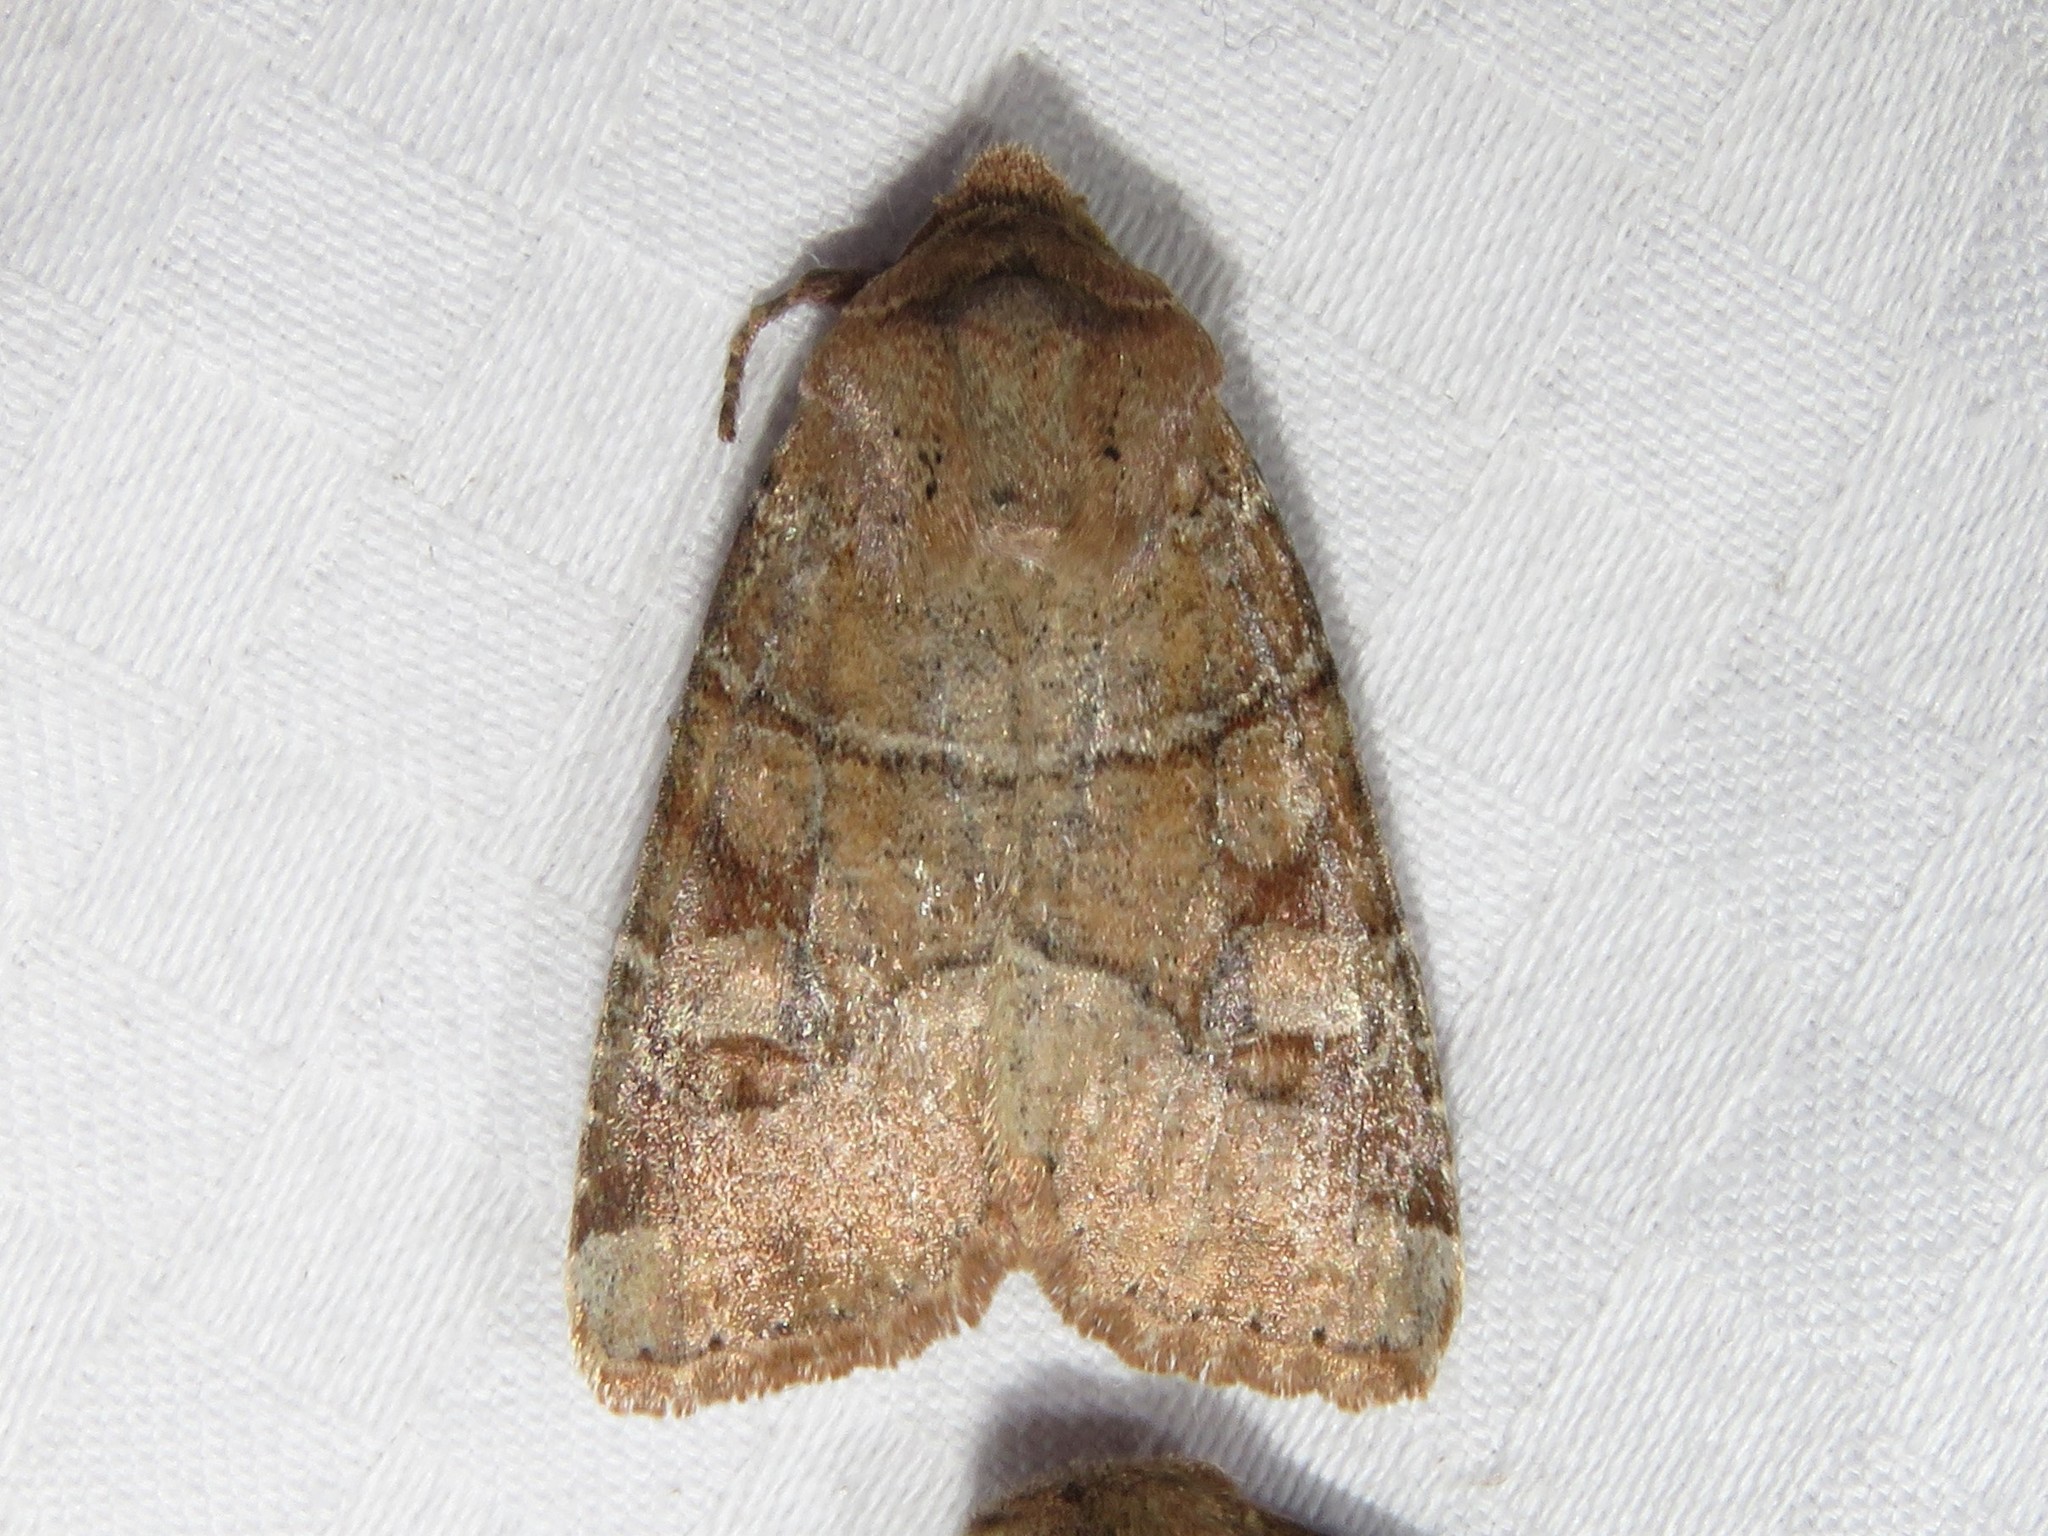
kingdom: Animalia
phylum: Arthropoda
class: Insecta
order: Lepidoptera
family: Noctuidae
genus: Crocigrapha
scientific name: Crocigrapha normani
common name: Norman's quaker
